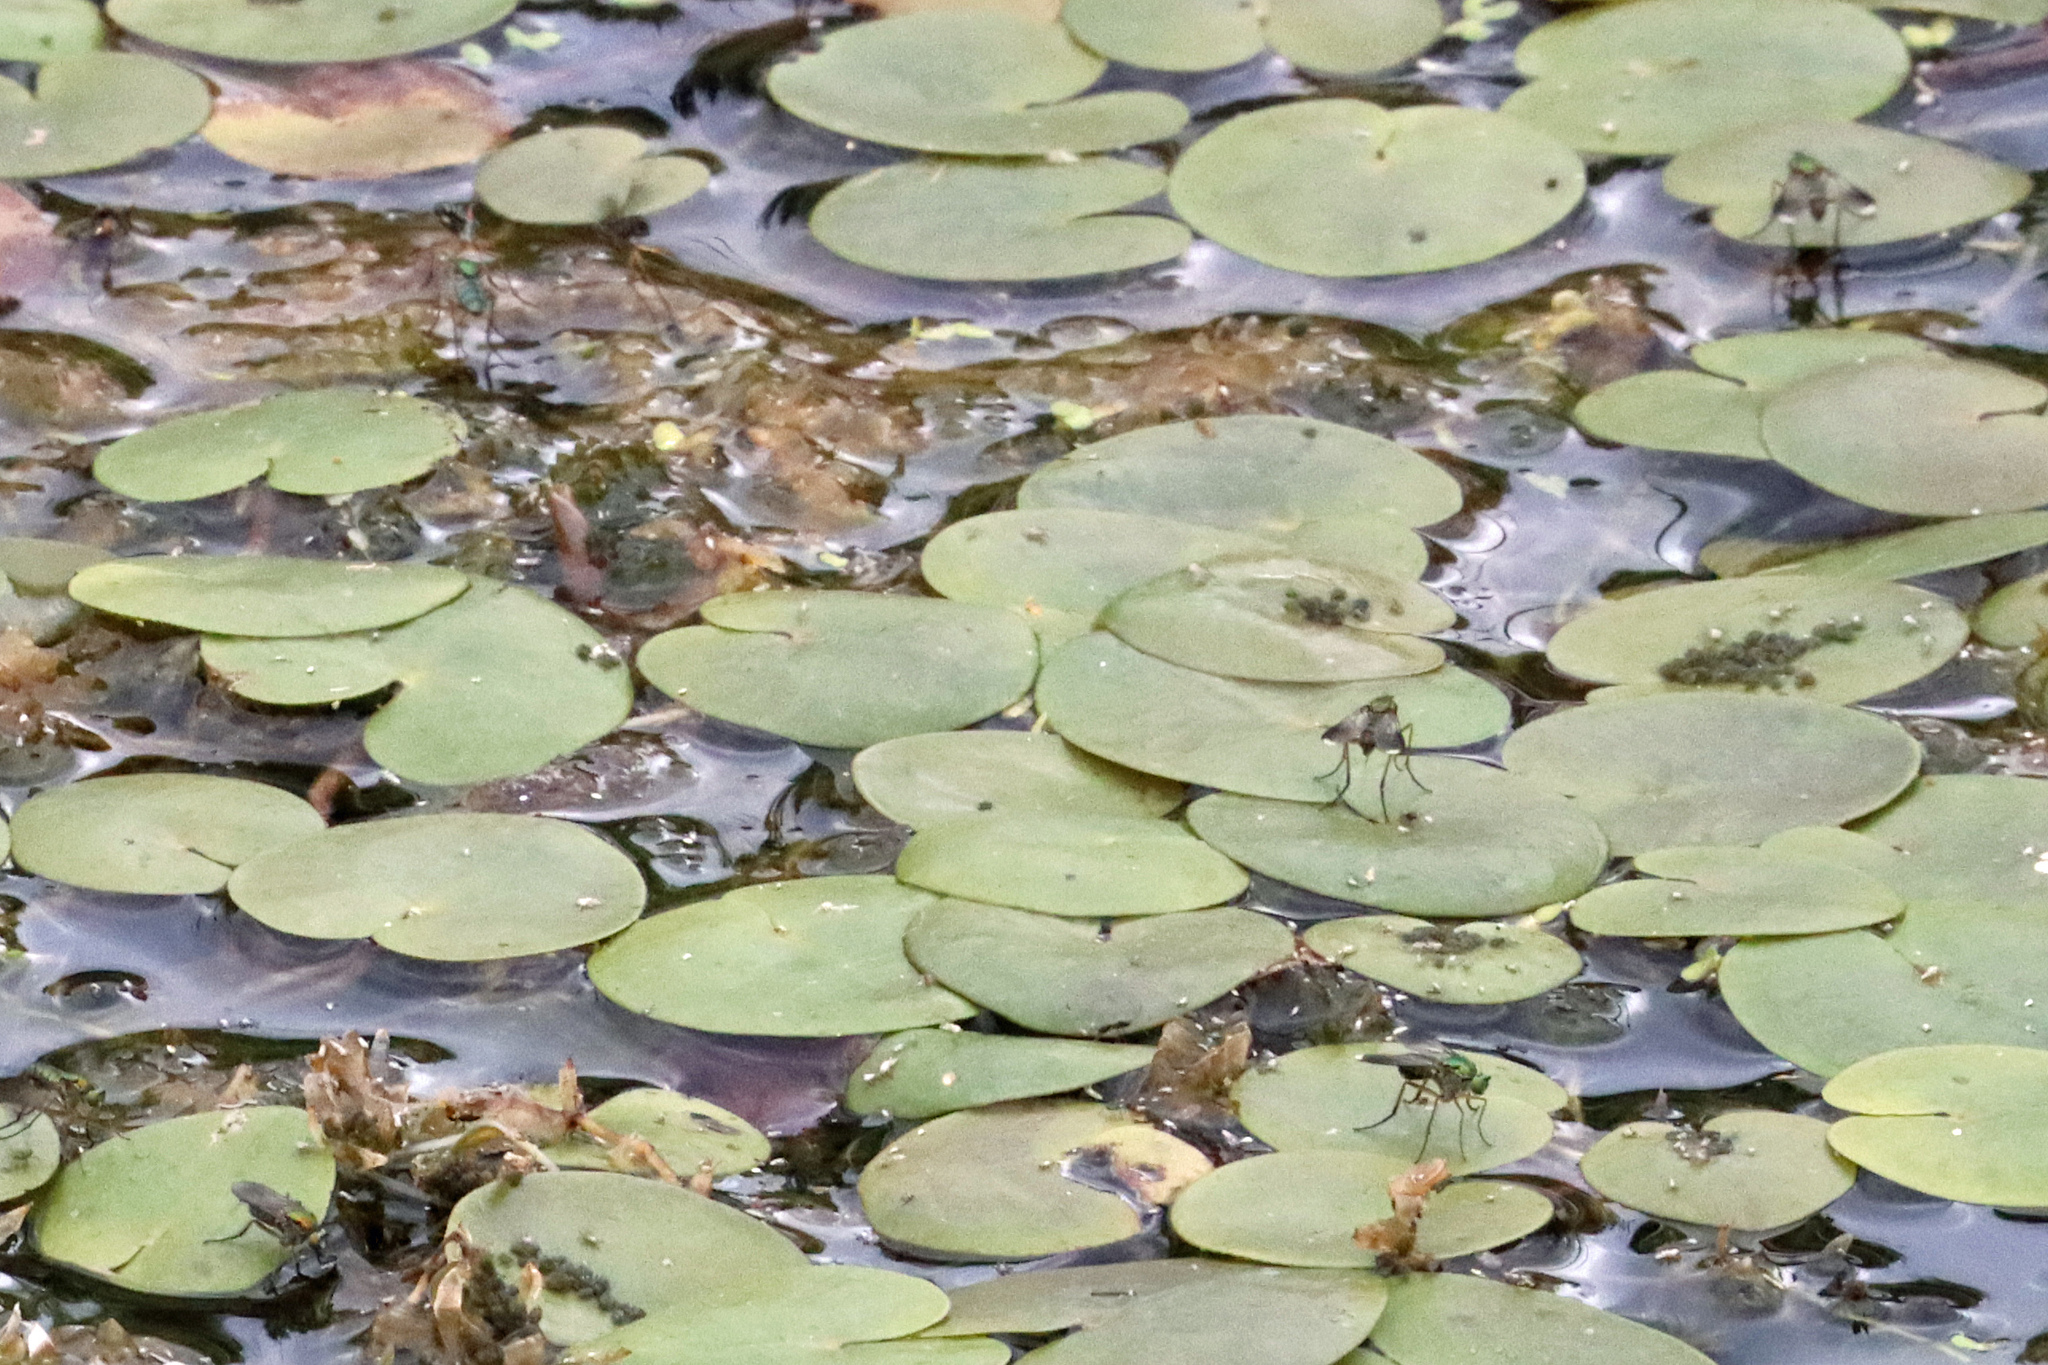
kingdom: Animalia
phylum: Arthropoda
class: Insecta
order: Diptera
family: Dolichopodidae
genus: Poecilobothrus
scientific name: Poecilobothrus nobilitatus
